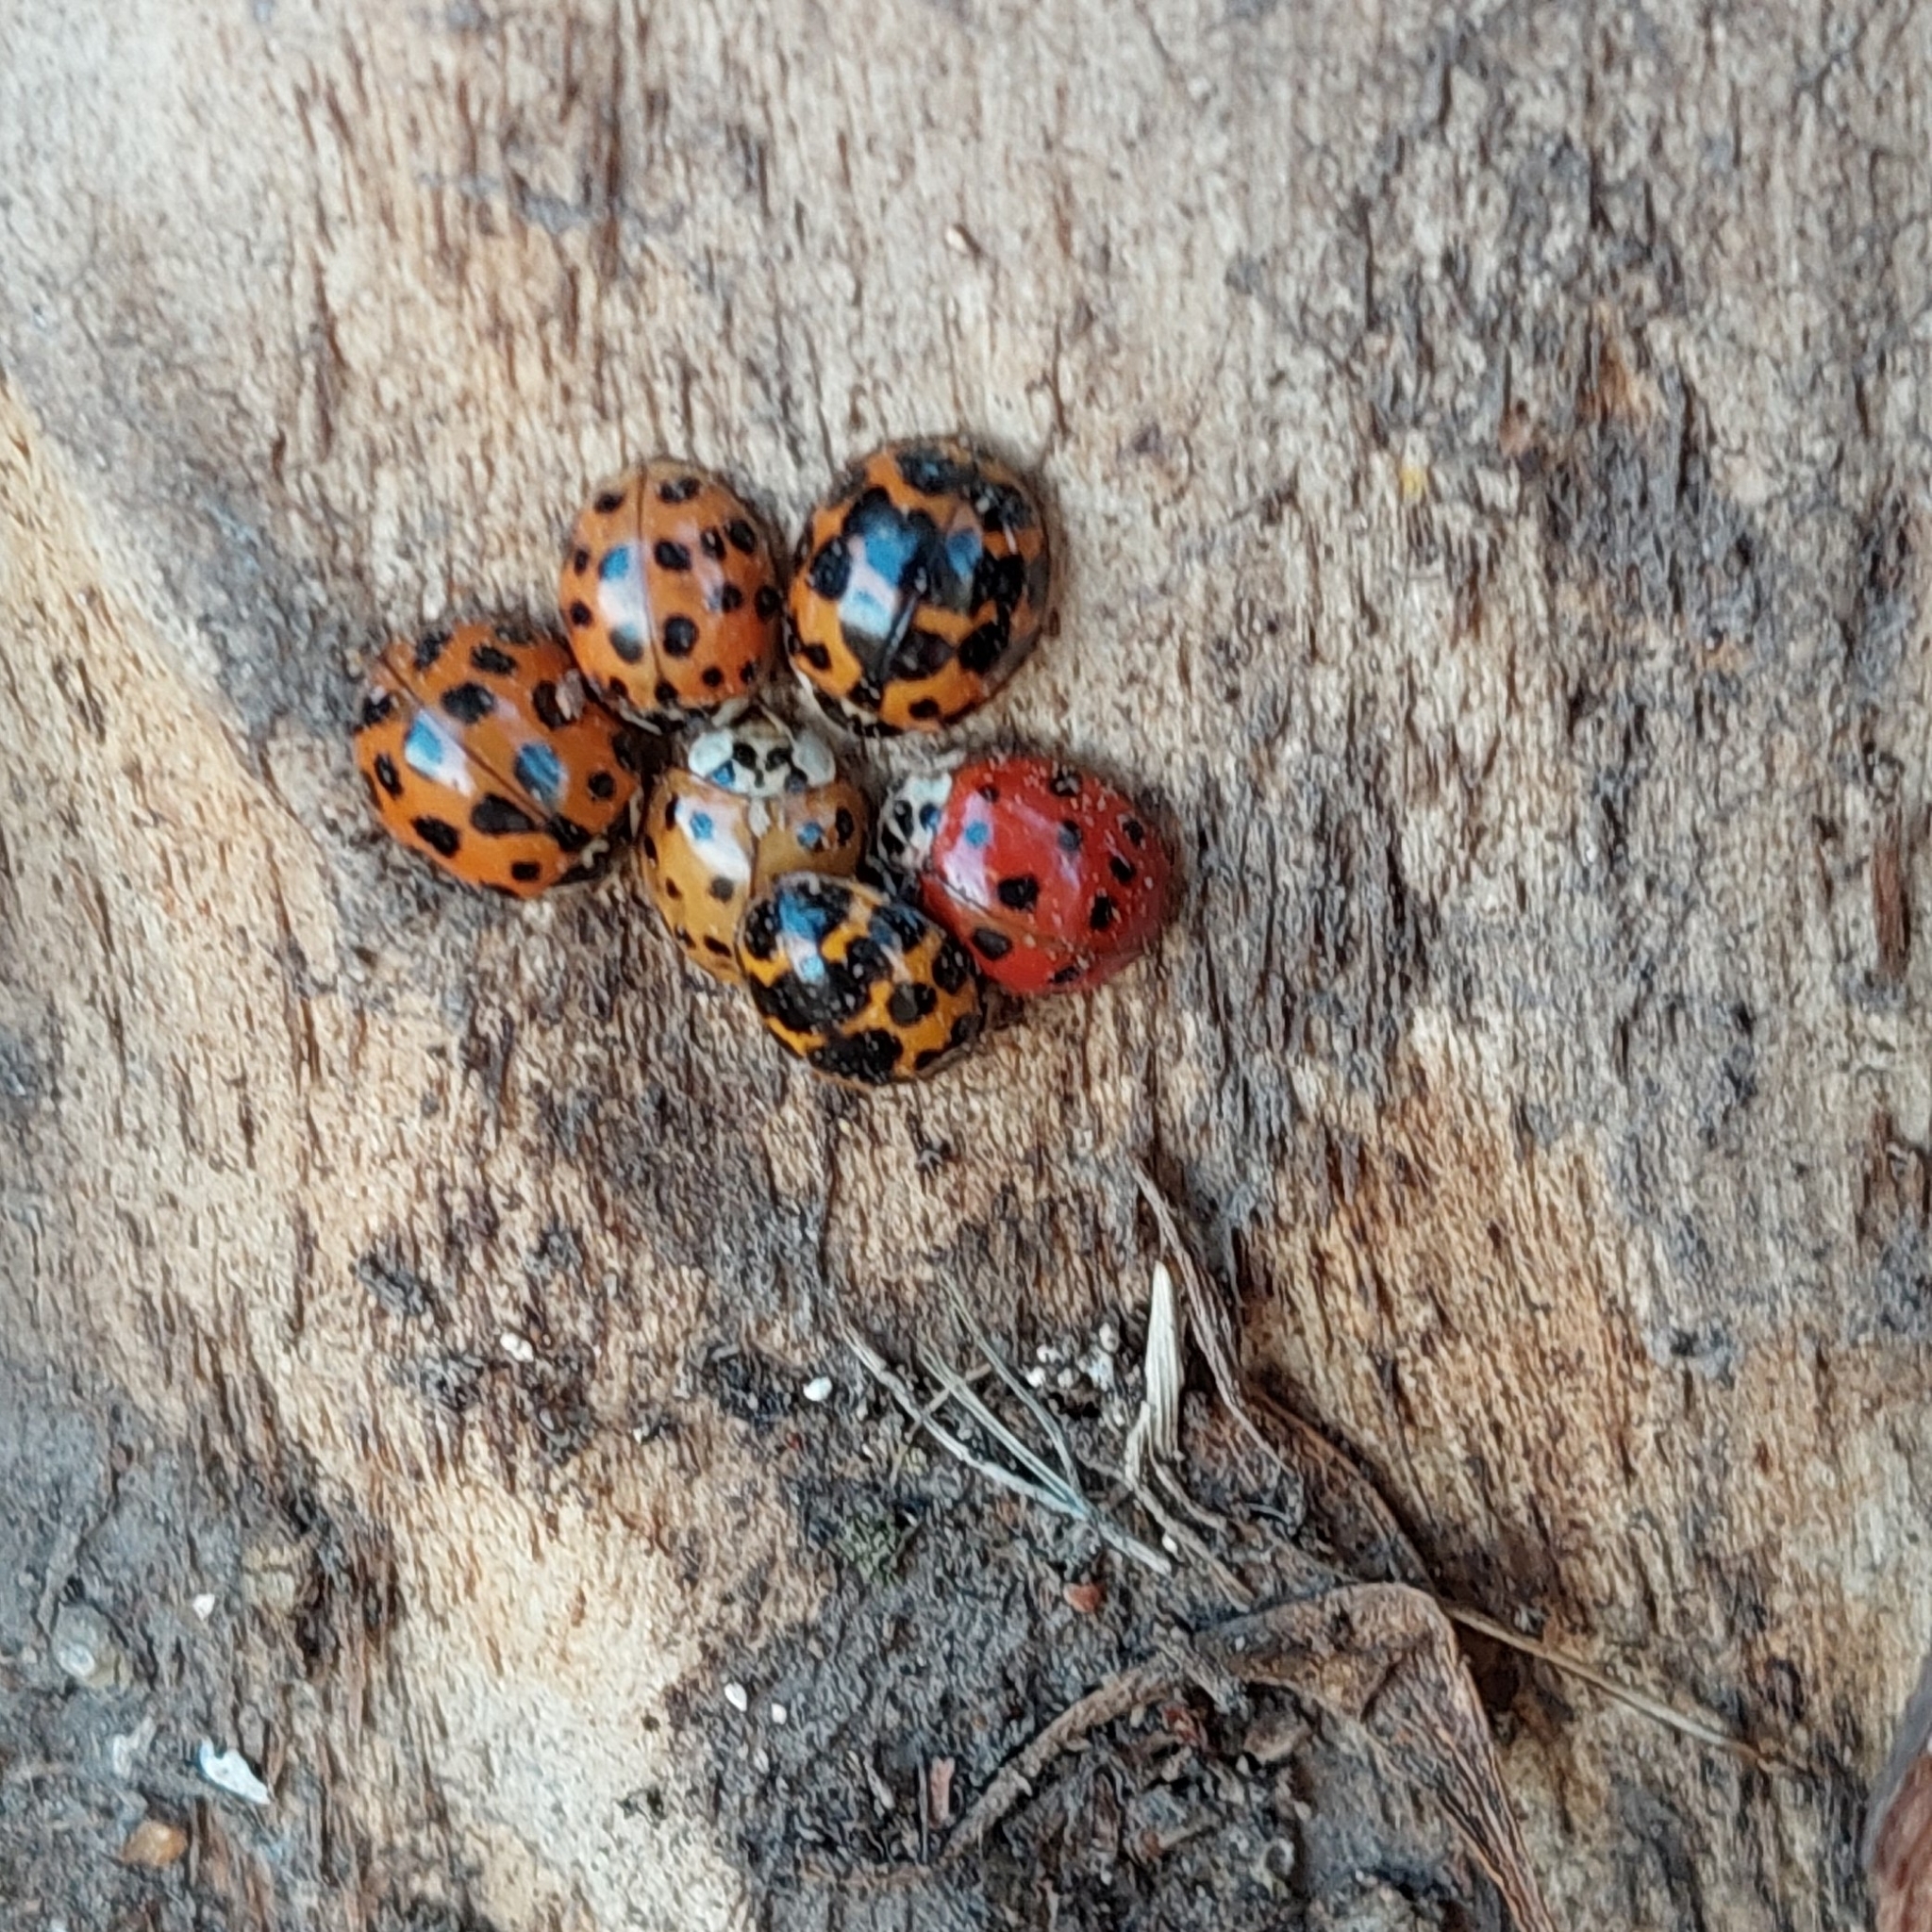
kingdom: Animalia
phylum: Arthropoda
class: Insecta
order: Coleoptera
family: Coccinellidae
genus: Harmonia
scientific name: Harmonia axyridis
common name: Harlequin ladybird
